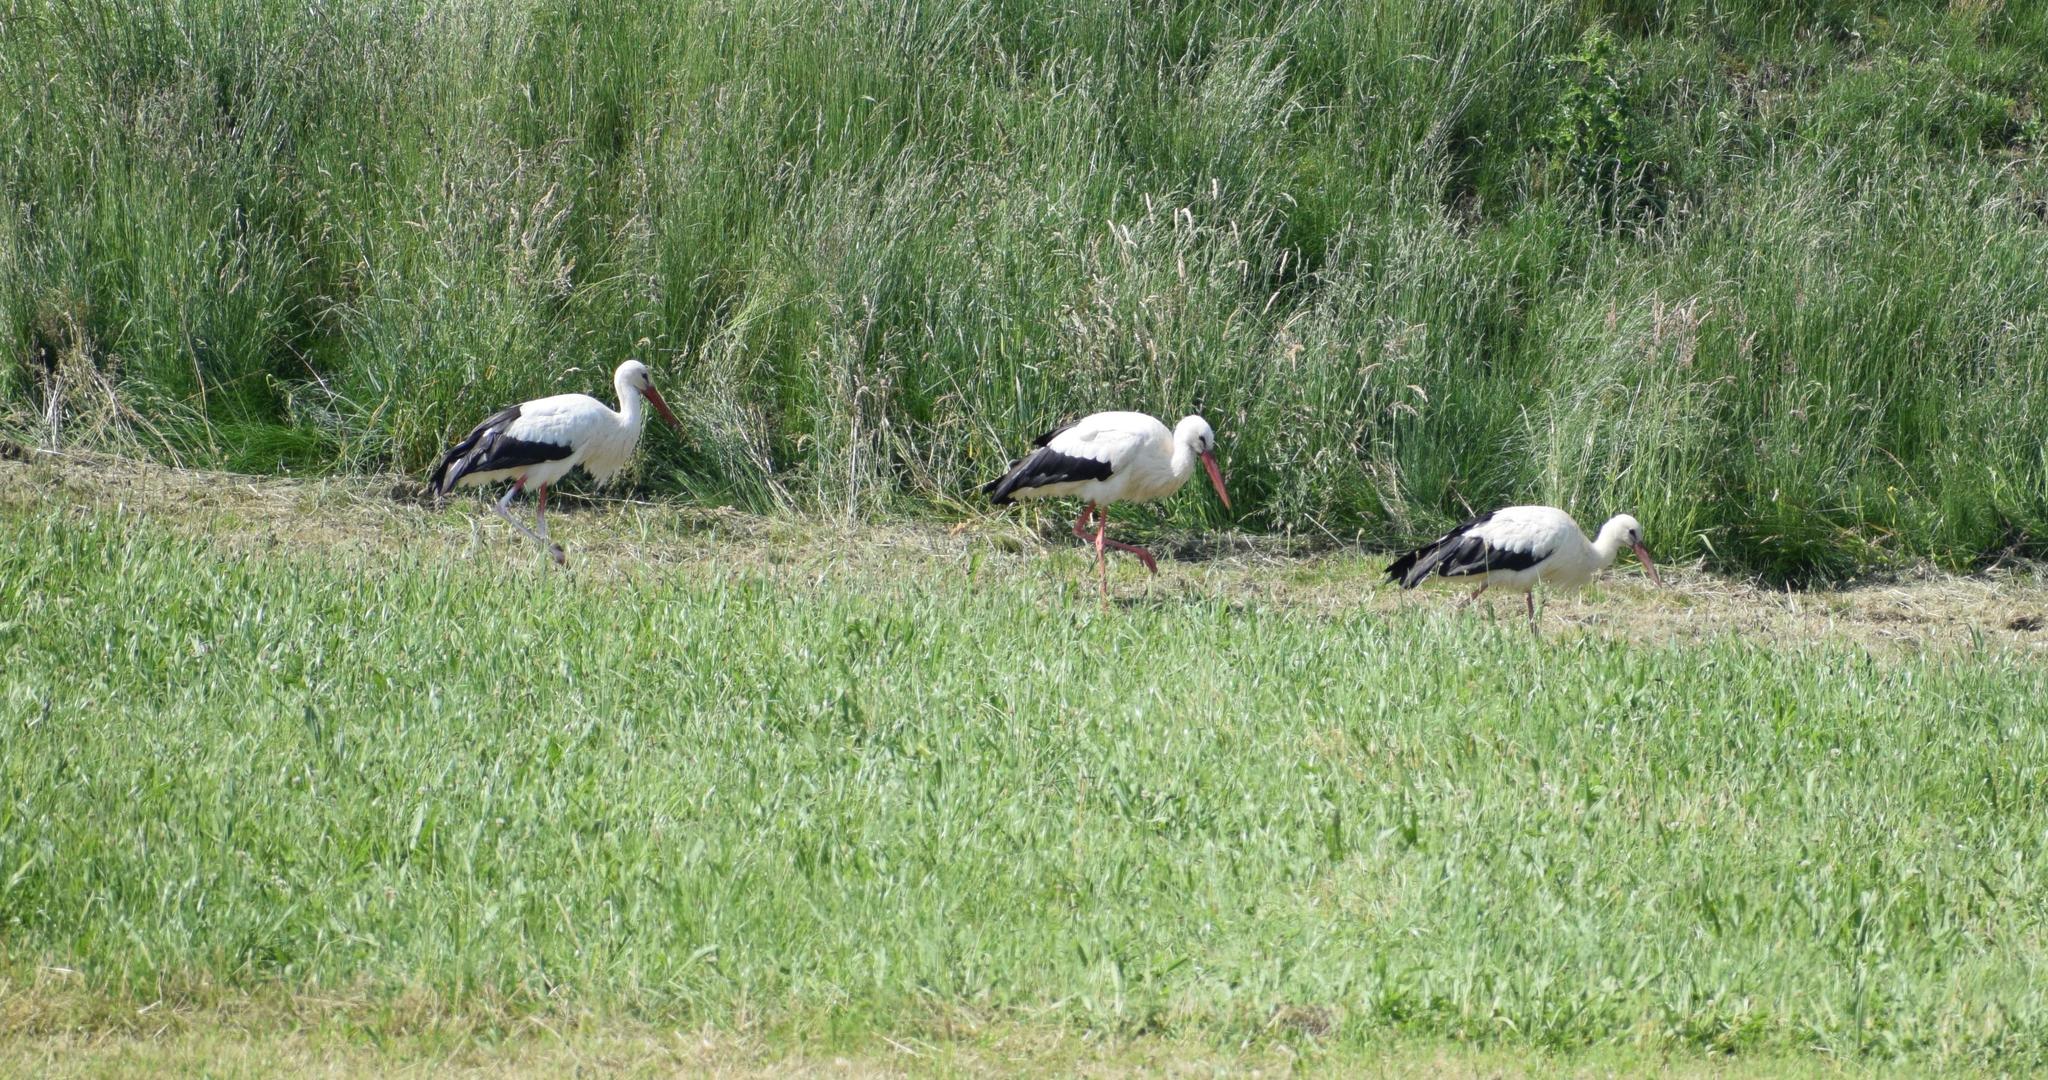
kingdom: Animalia
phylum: Chordata
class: Aves
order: Ciconiiformes
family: Ciconiidae
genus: Ciconia
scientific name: Ciconia ciconia
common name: White stork
